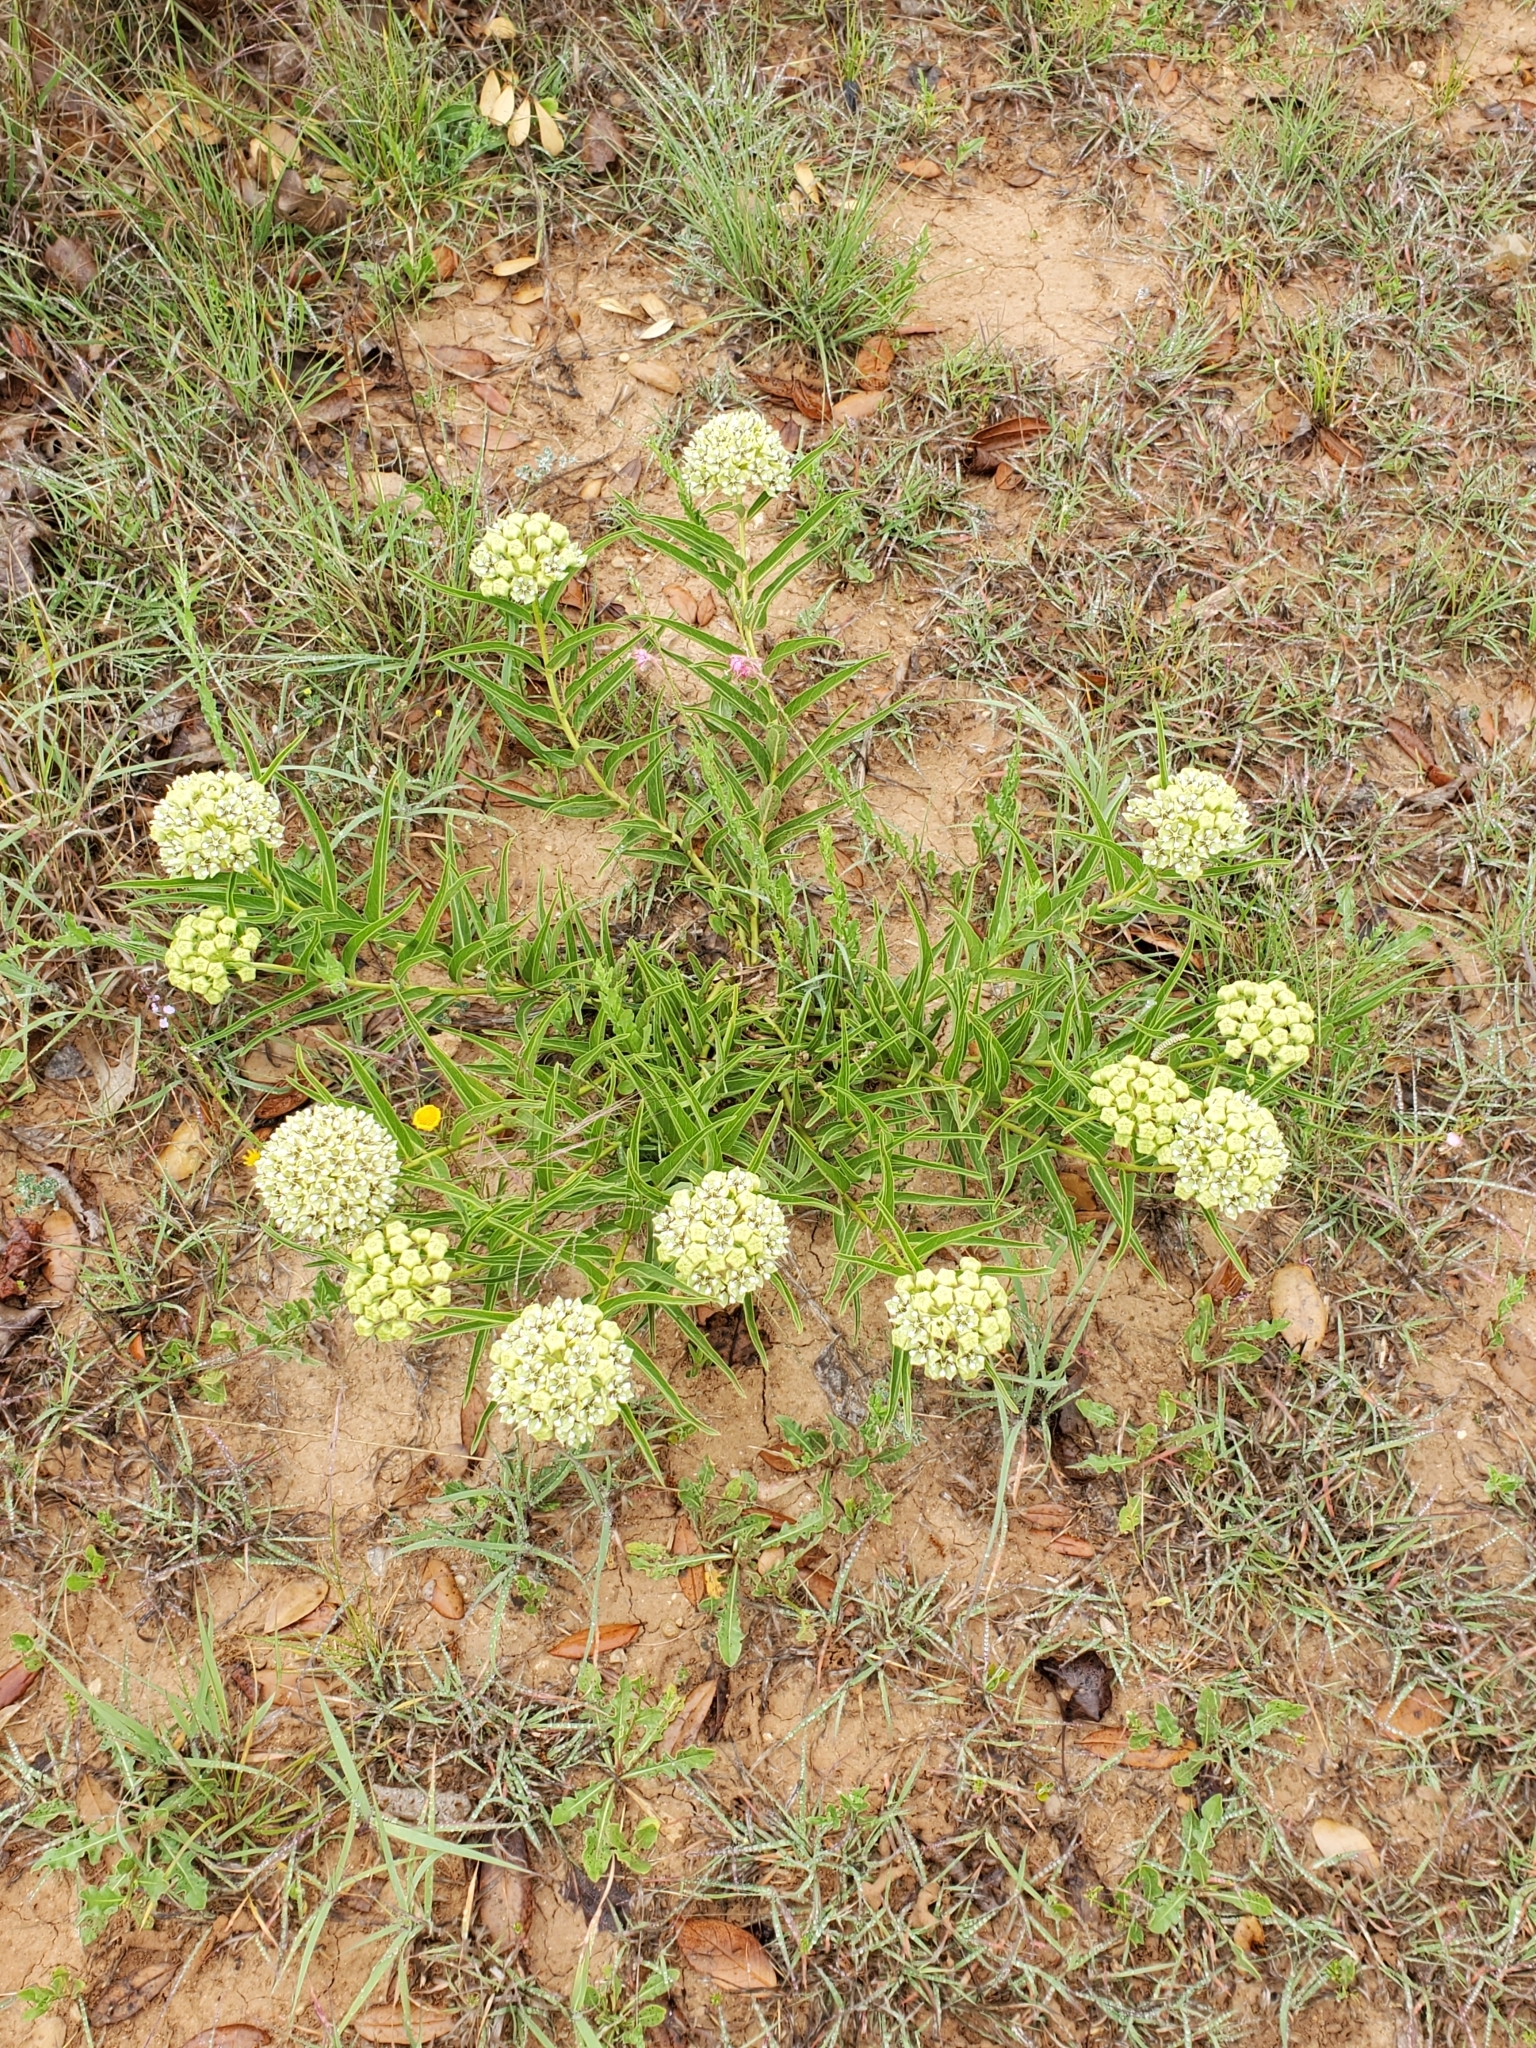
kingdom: Plantae
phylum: Tracheophyta
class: Magnoliopsida
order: Gentianales
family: Apocynaceae
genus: Asclepias
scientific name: Asclepias asperula
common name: Antelope horns
